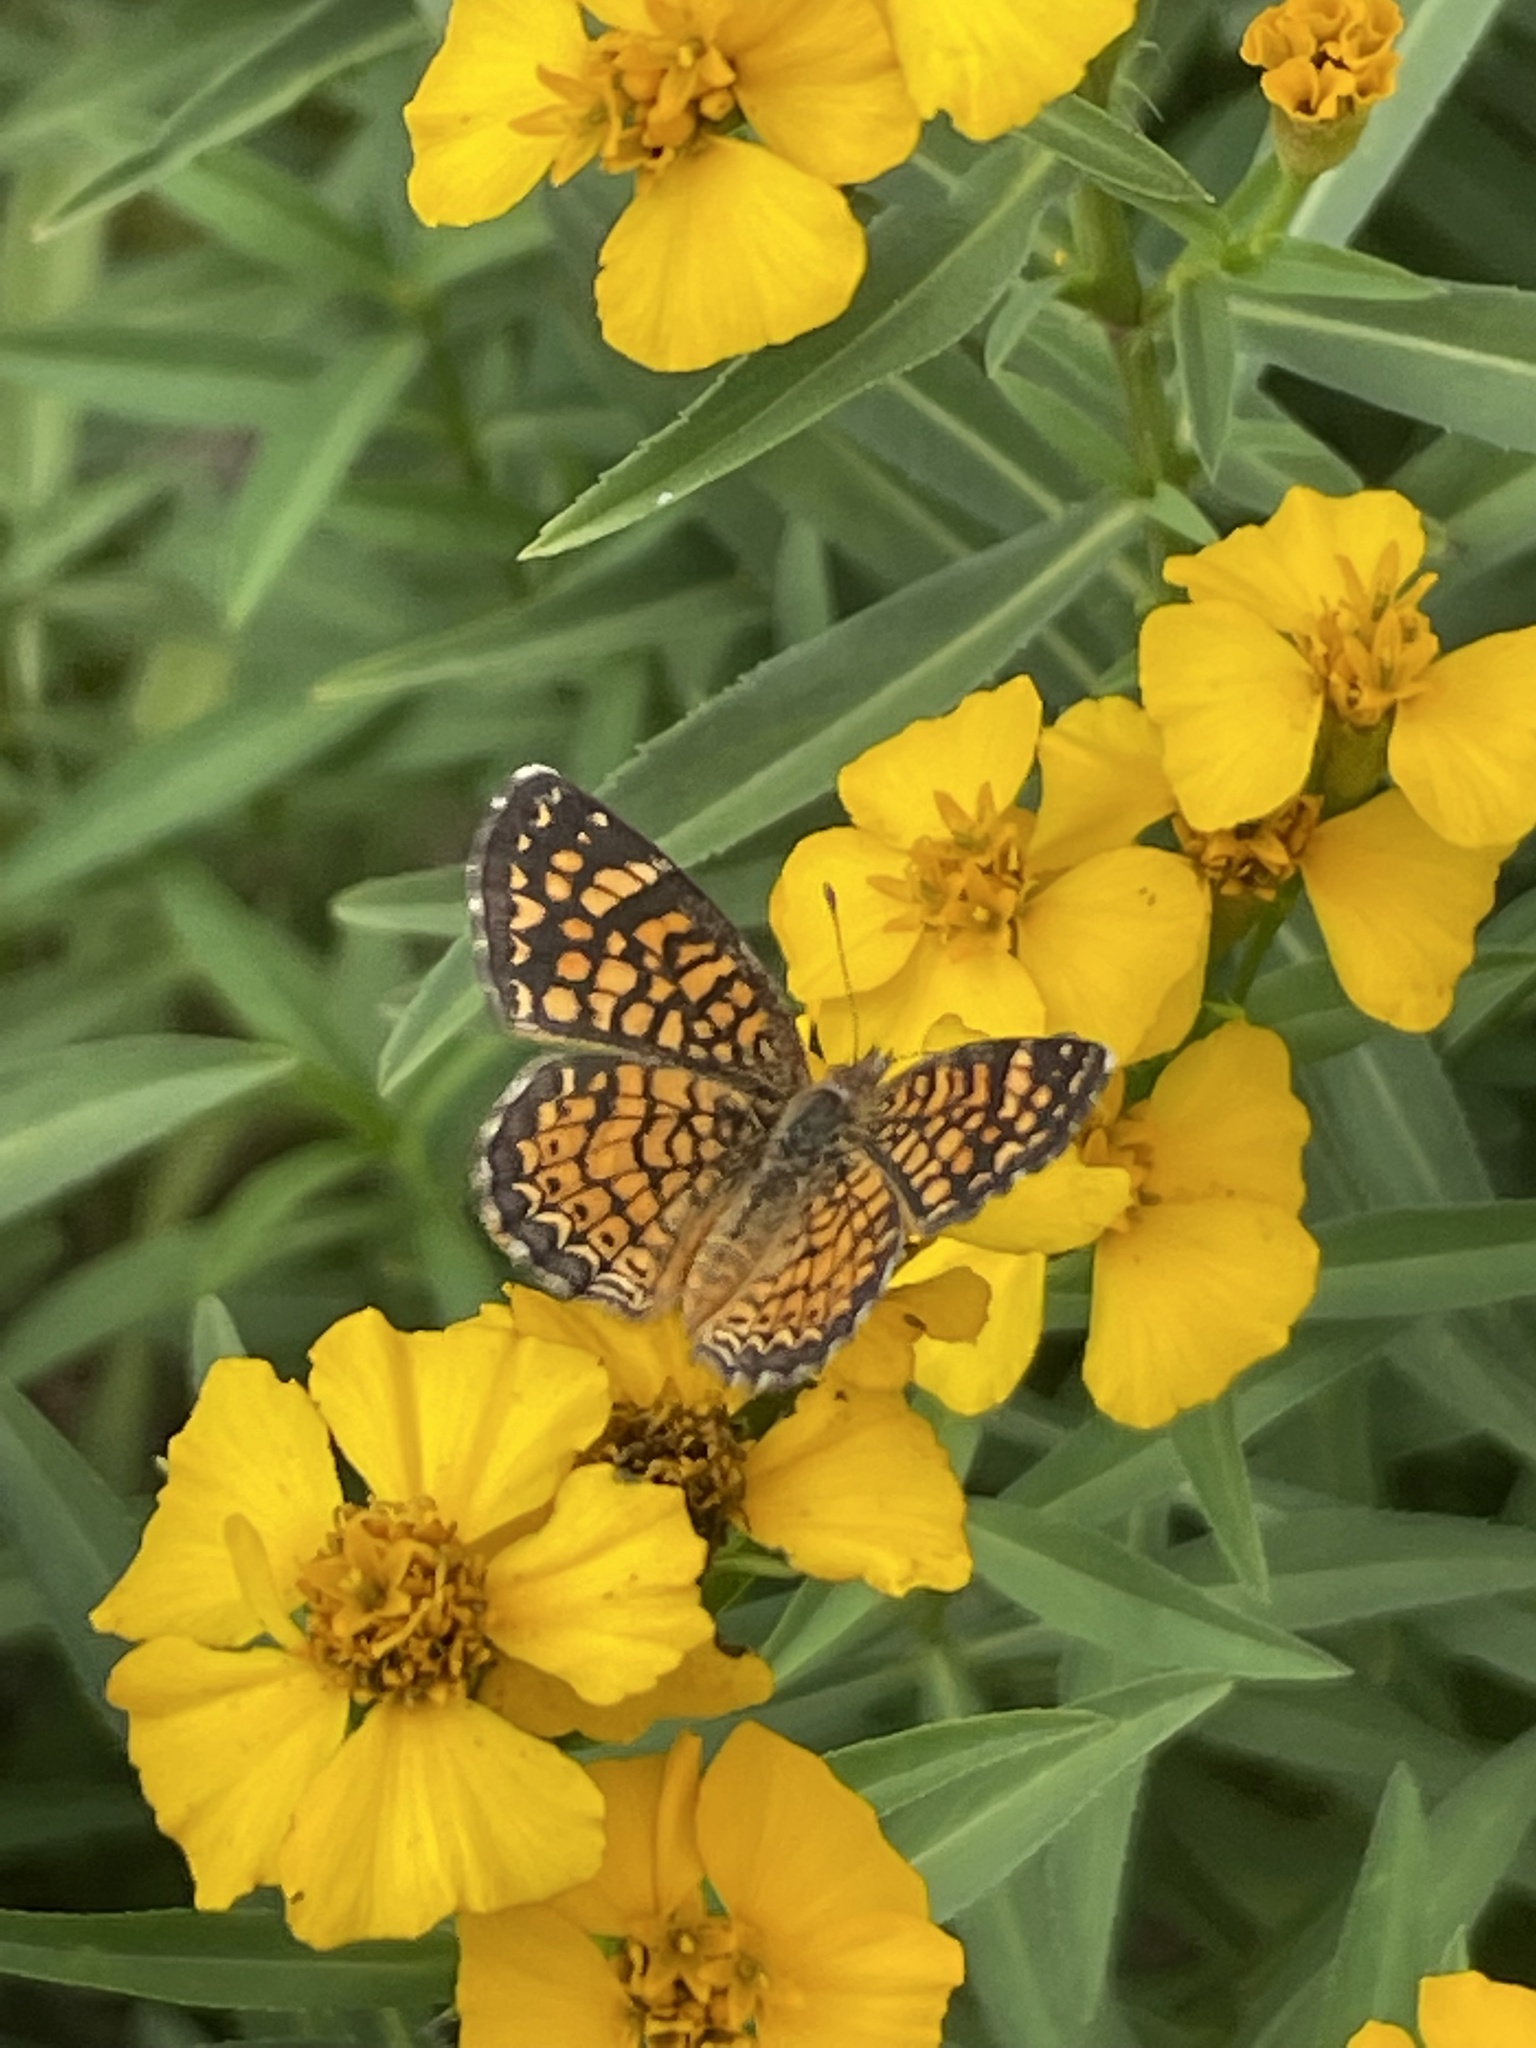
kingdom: Animalia
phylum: Arthropoda
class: Insecta
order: Lepidoptera
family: Nymphalidae
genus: Phyciodes
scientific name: Phyciodes vesta
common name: Vesta crescent
